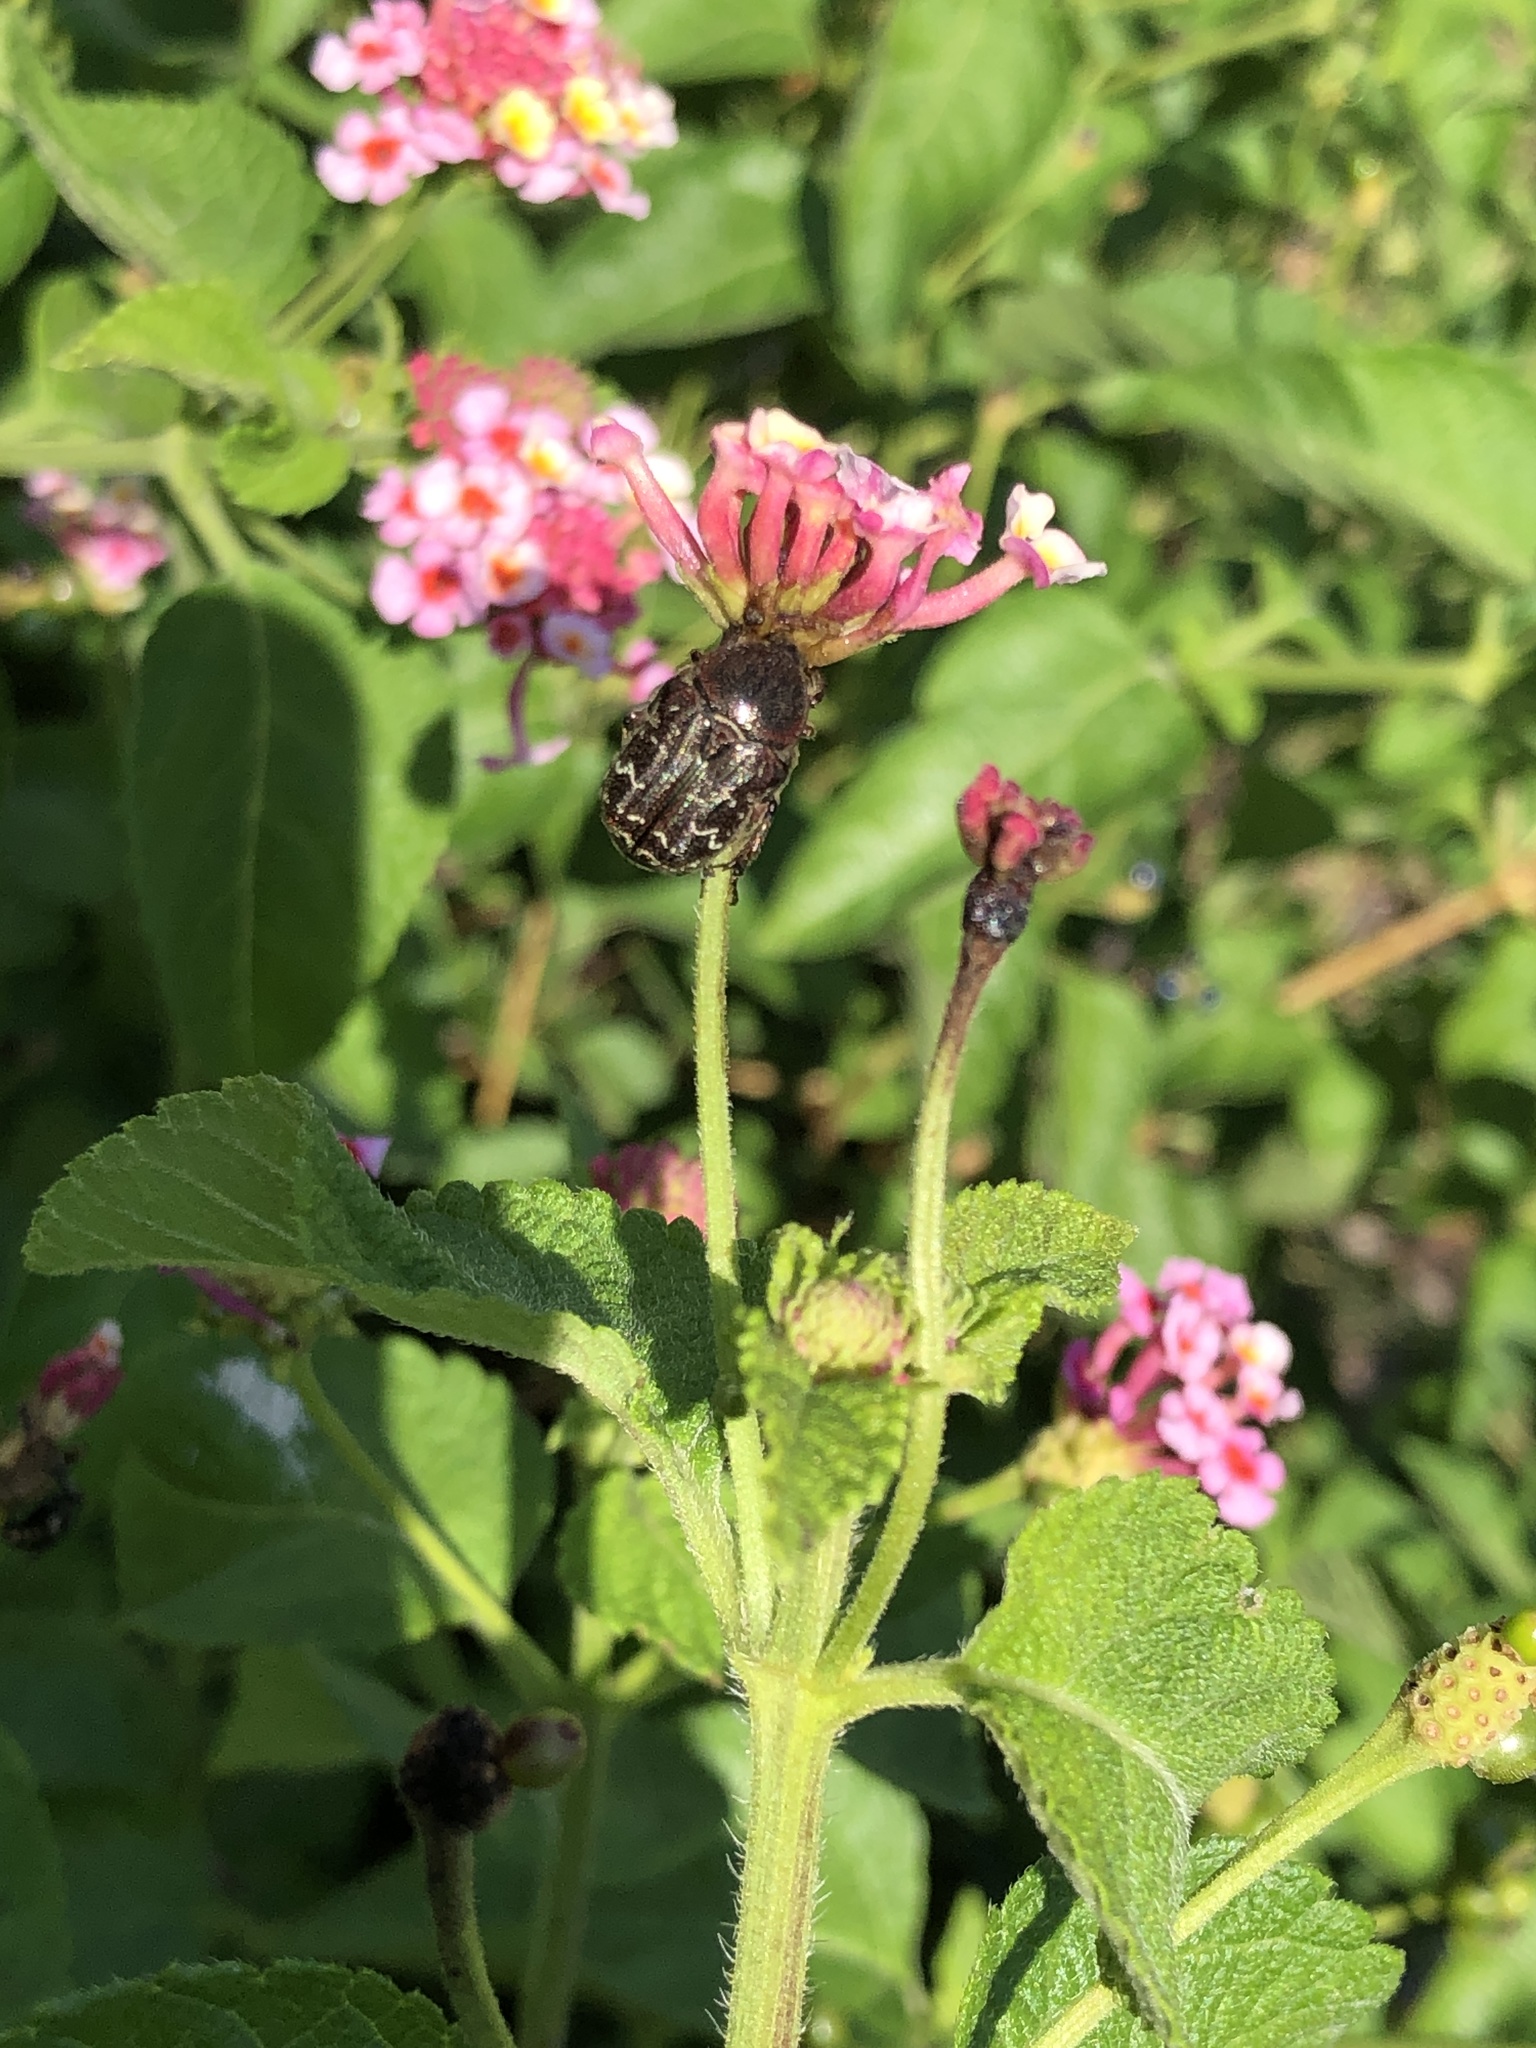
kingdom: Animalia
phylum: Arthropoda
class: Insecta
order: Coleoptera
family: Scarabaeidae
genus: Euphoria
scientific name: Euphoria sepulcralis
